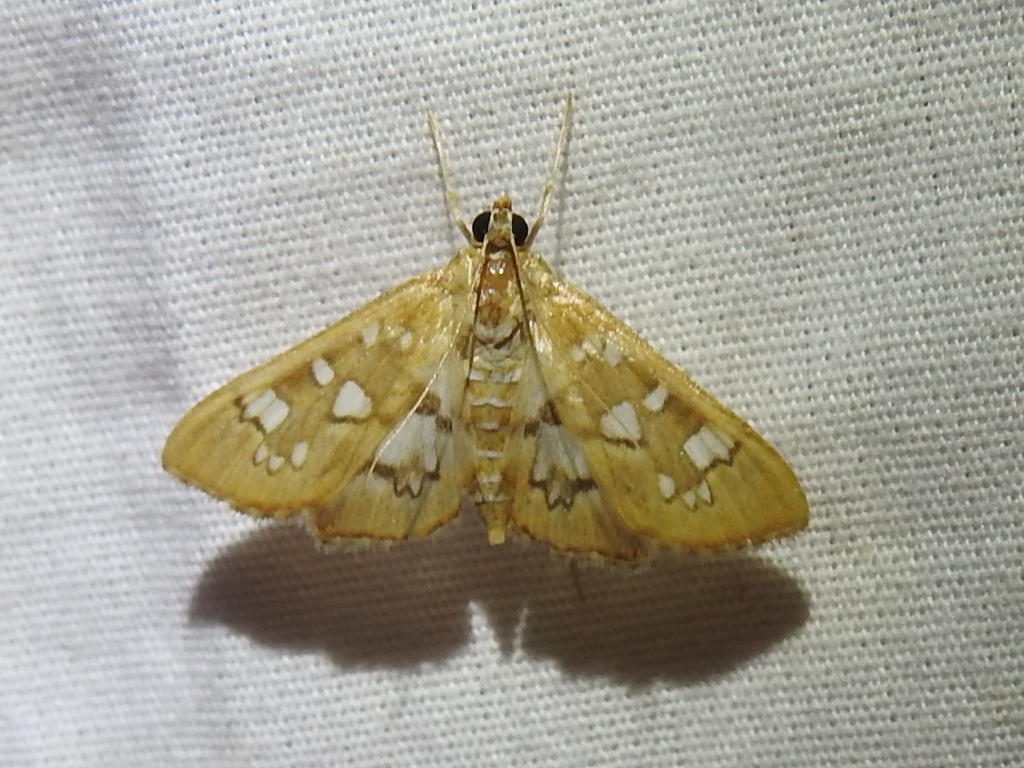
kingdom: Animalia
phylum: Arthropoda
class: Insecta
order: Lepidoptera
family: Crambidae
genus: Samea
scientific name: Samea baccatalis
